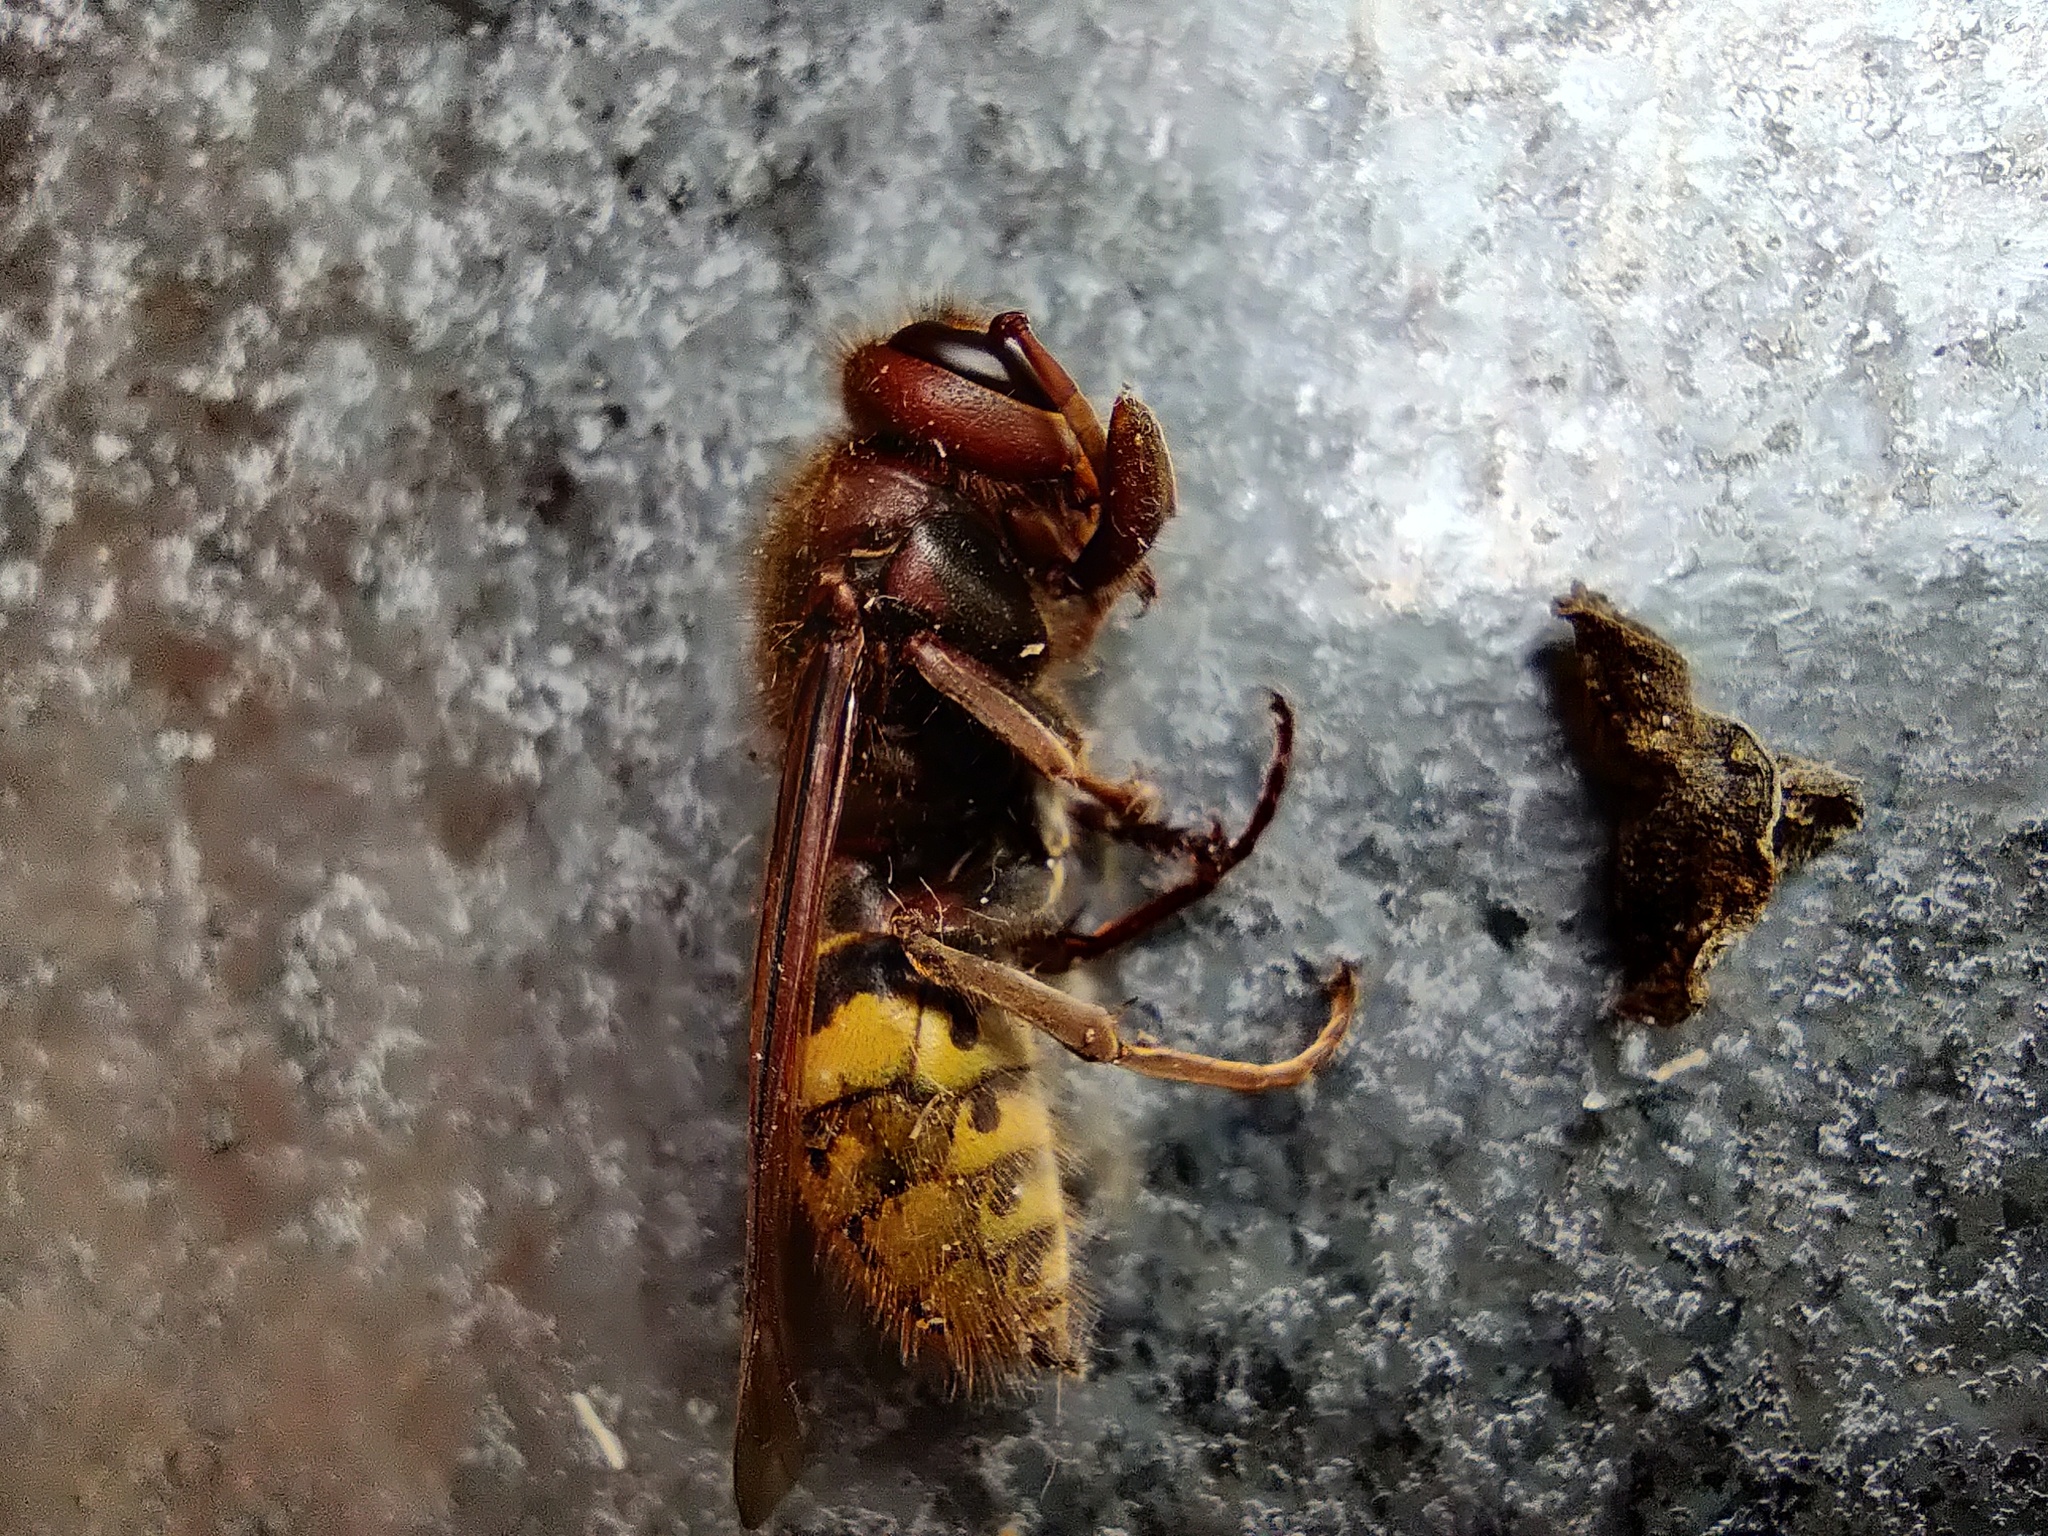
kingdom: Animalia
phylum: Arthropoda
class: Insecta
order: Hymenoptera
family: Vespidae
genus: Vespa
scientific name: Vespa crabro
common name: Hornet
